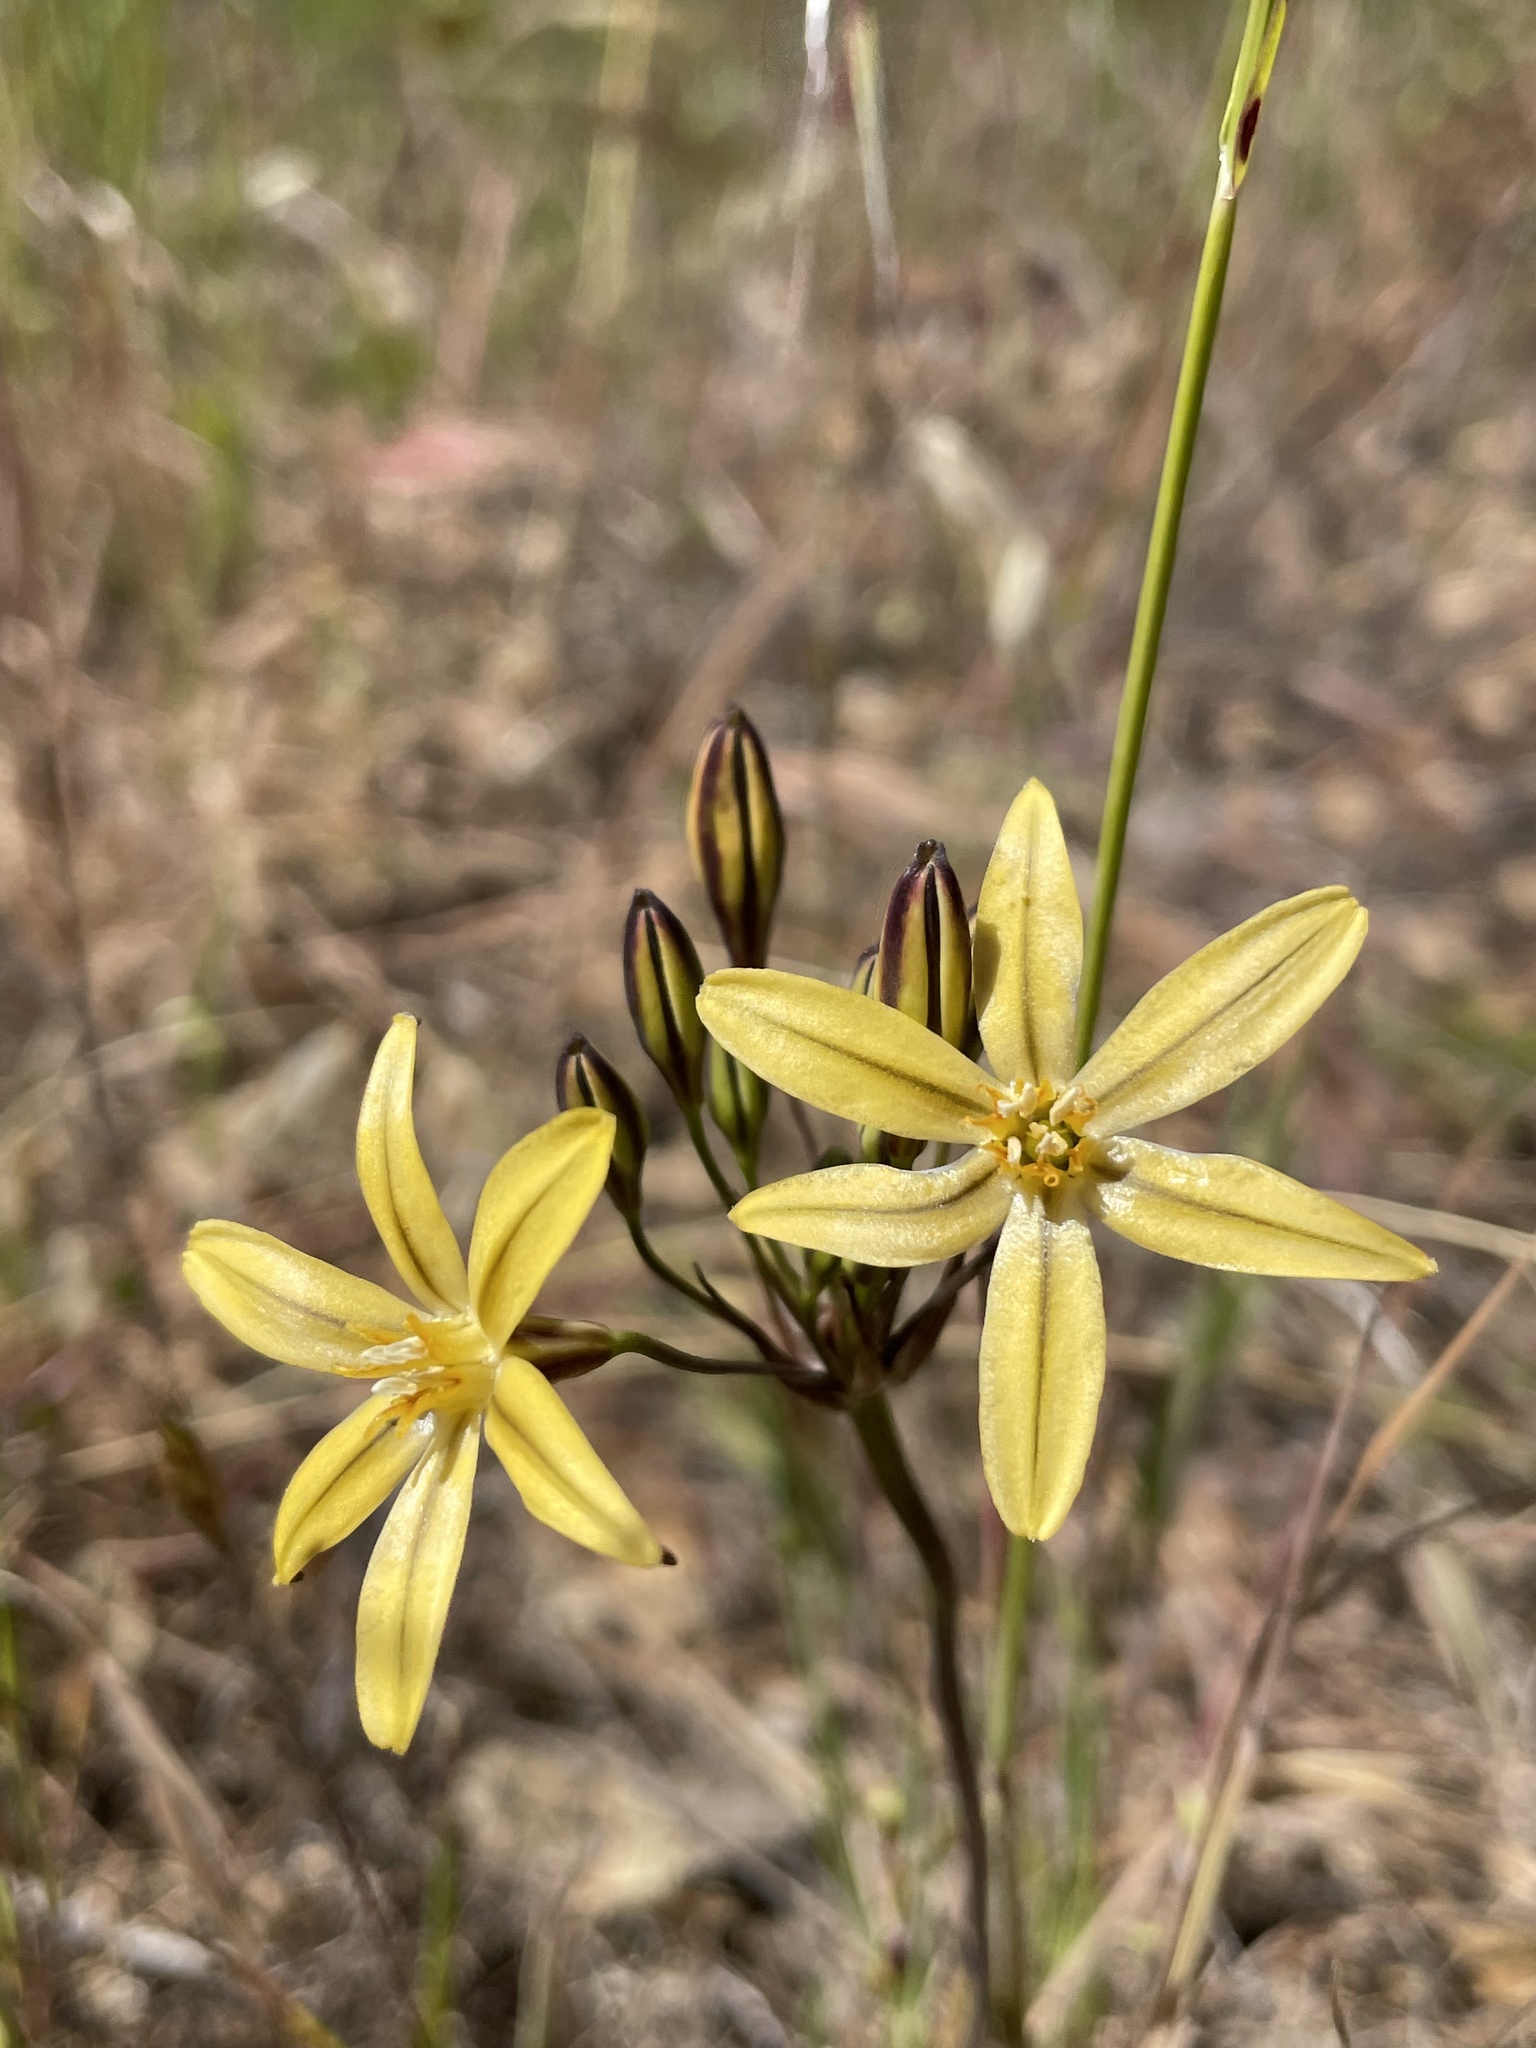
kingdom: Plantae
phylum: Tracheophyta
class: Liliopsida
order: Asparagales
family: Asparagaceae
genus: Triteleia
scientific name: Triteleia ixioides
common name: Yellow-brodiaea
